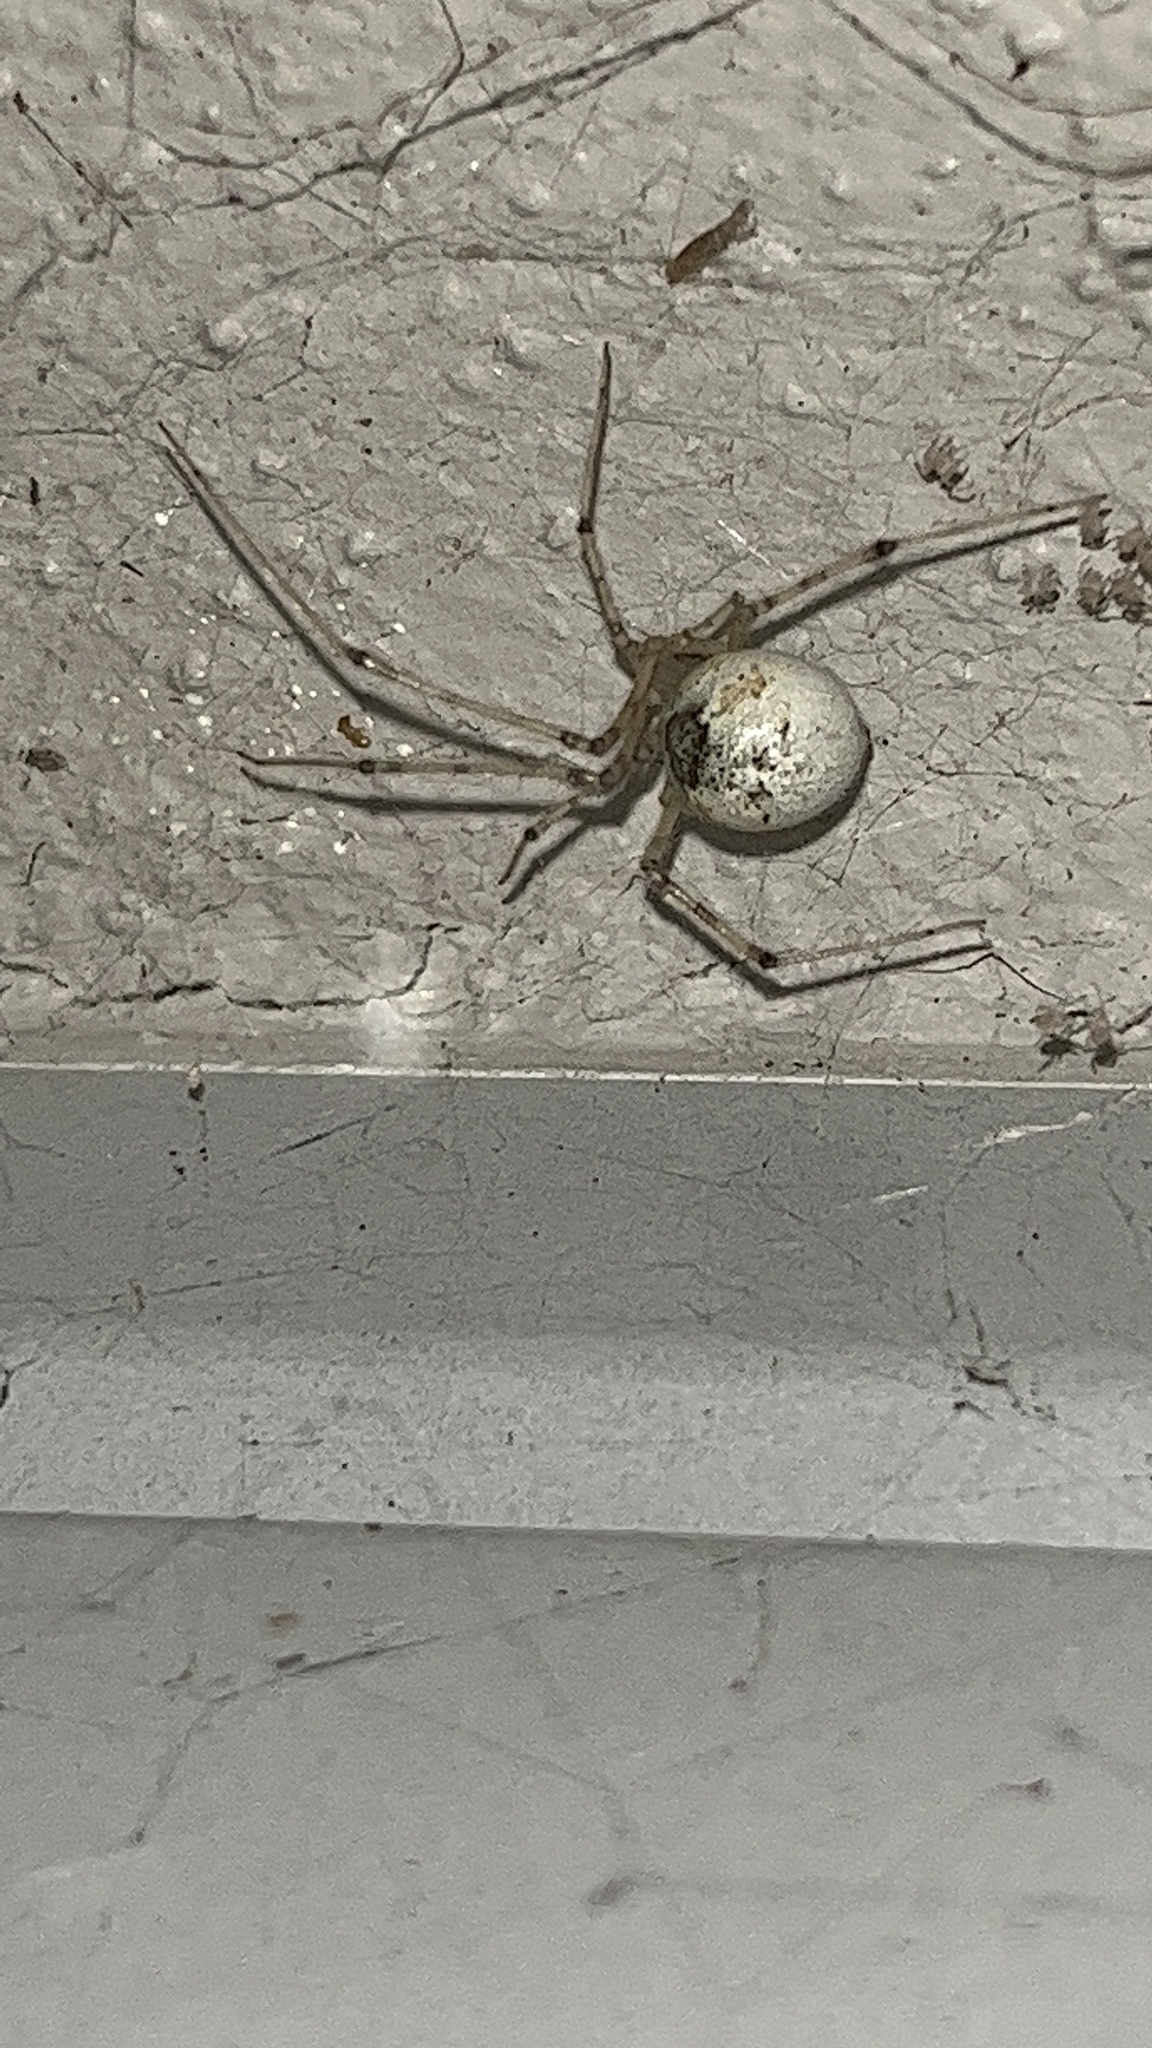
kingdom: Animalia
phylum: Arthropoda
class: Arachnida
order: Araneae
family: Theridiidae
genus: Cryptachaea
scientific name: Cryptachaea gigantipes
